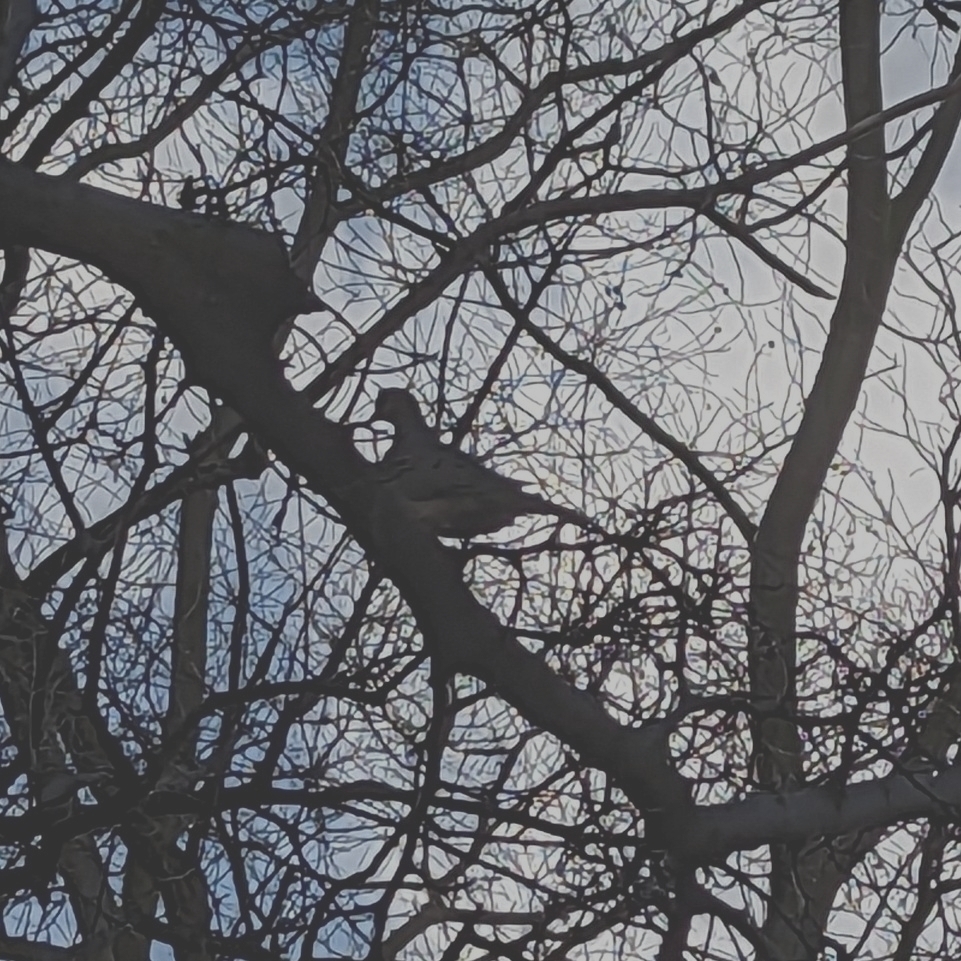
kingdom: Animalia
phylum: Chordata
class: Aves
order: Columbiformes
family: Columbidae
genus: Zenaida
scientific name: Zenaida macroura
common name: Mourning dove
